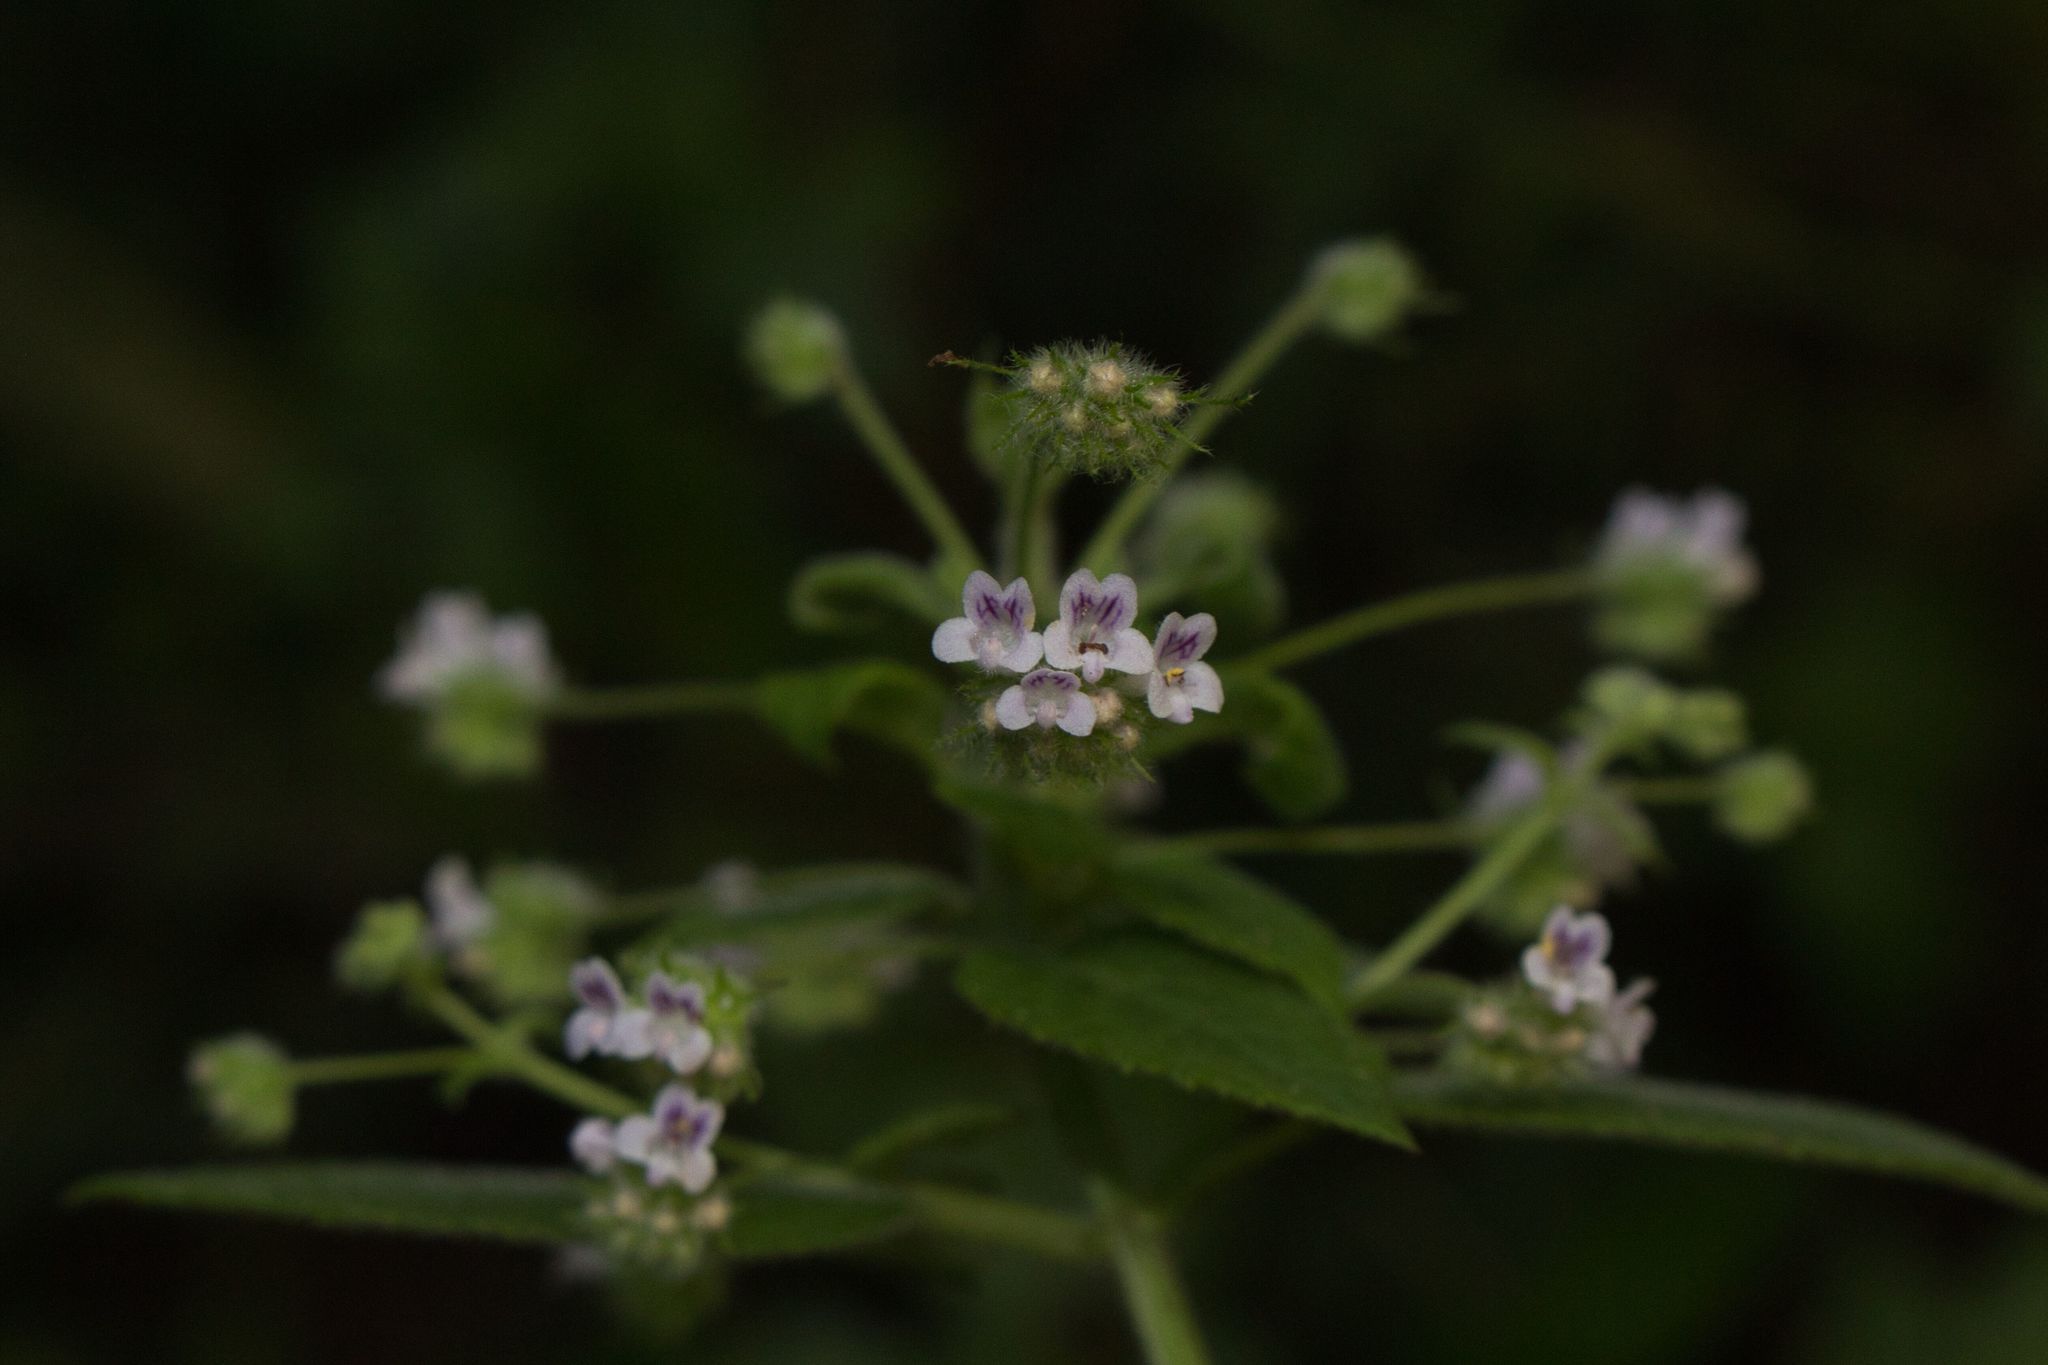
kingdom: Plantae
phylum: Tracheophyta
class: Magnoliopsida
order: Lamiales
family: Lamiaceae
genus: Mesosphaerum
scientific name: Mesosphaerum urticoides
